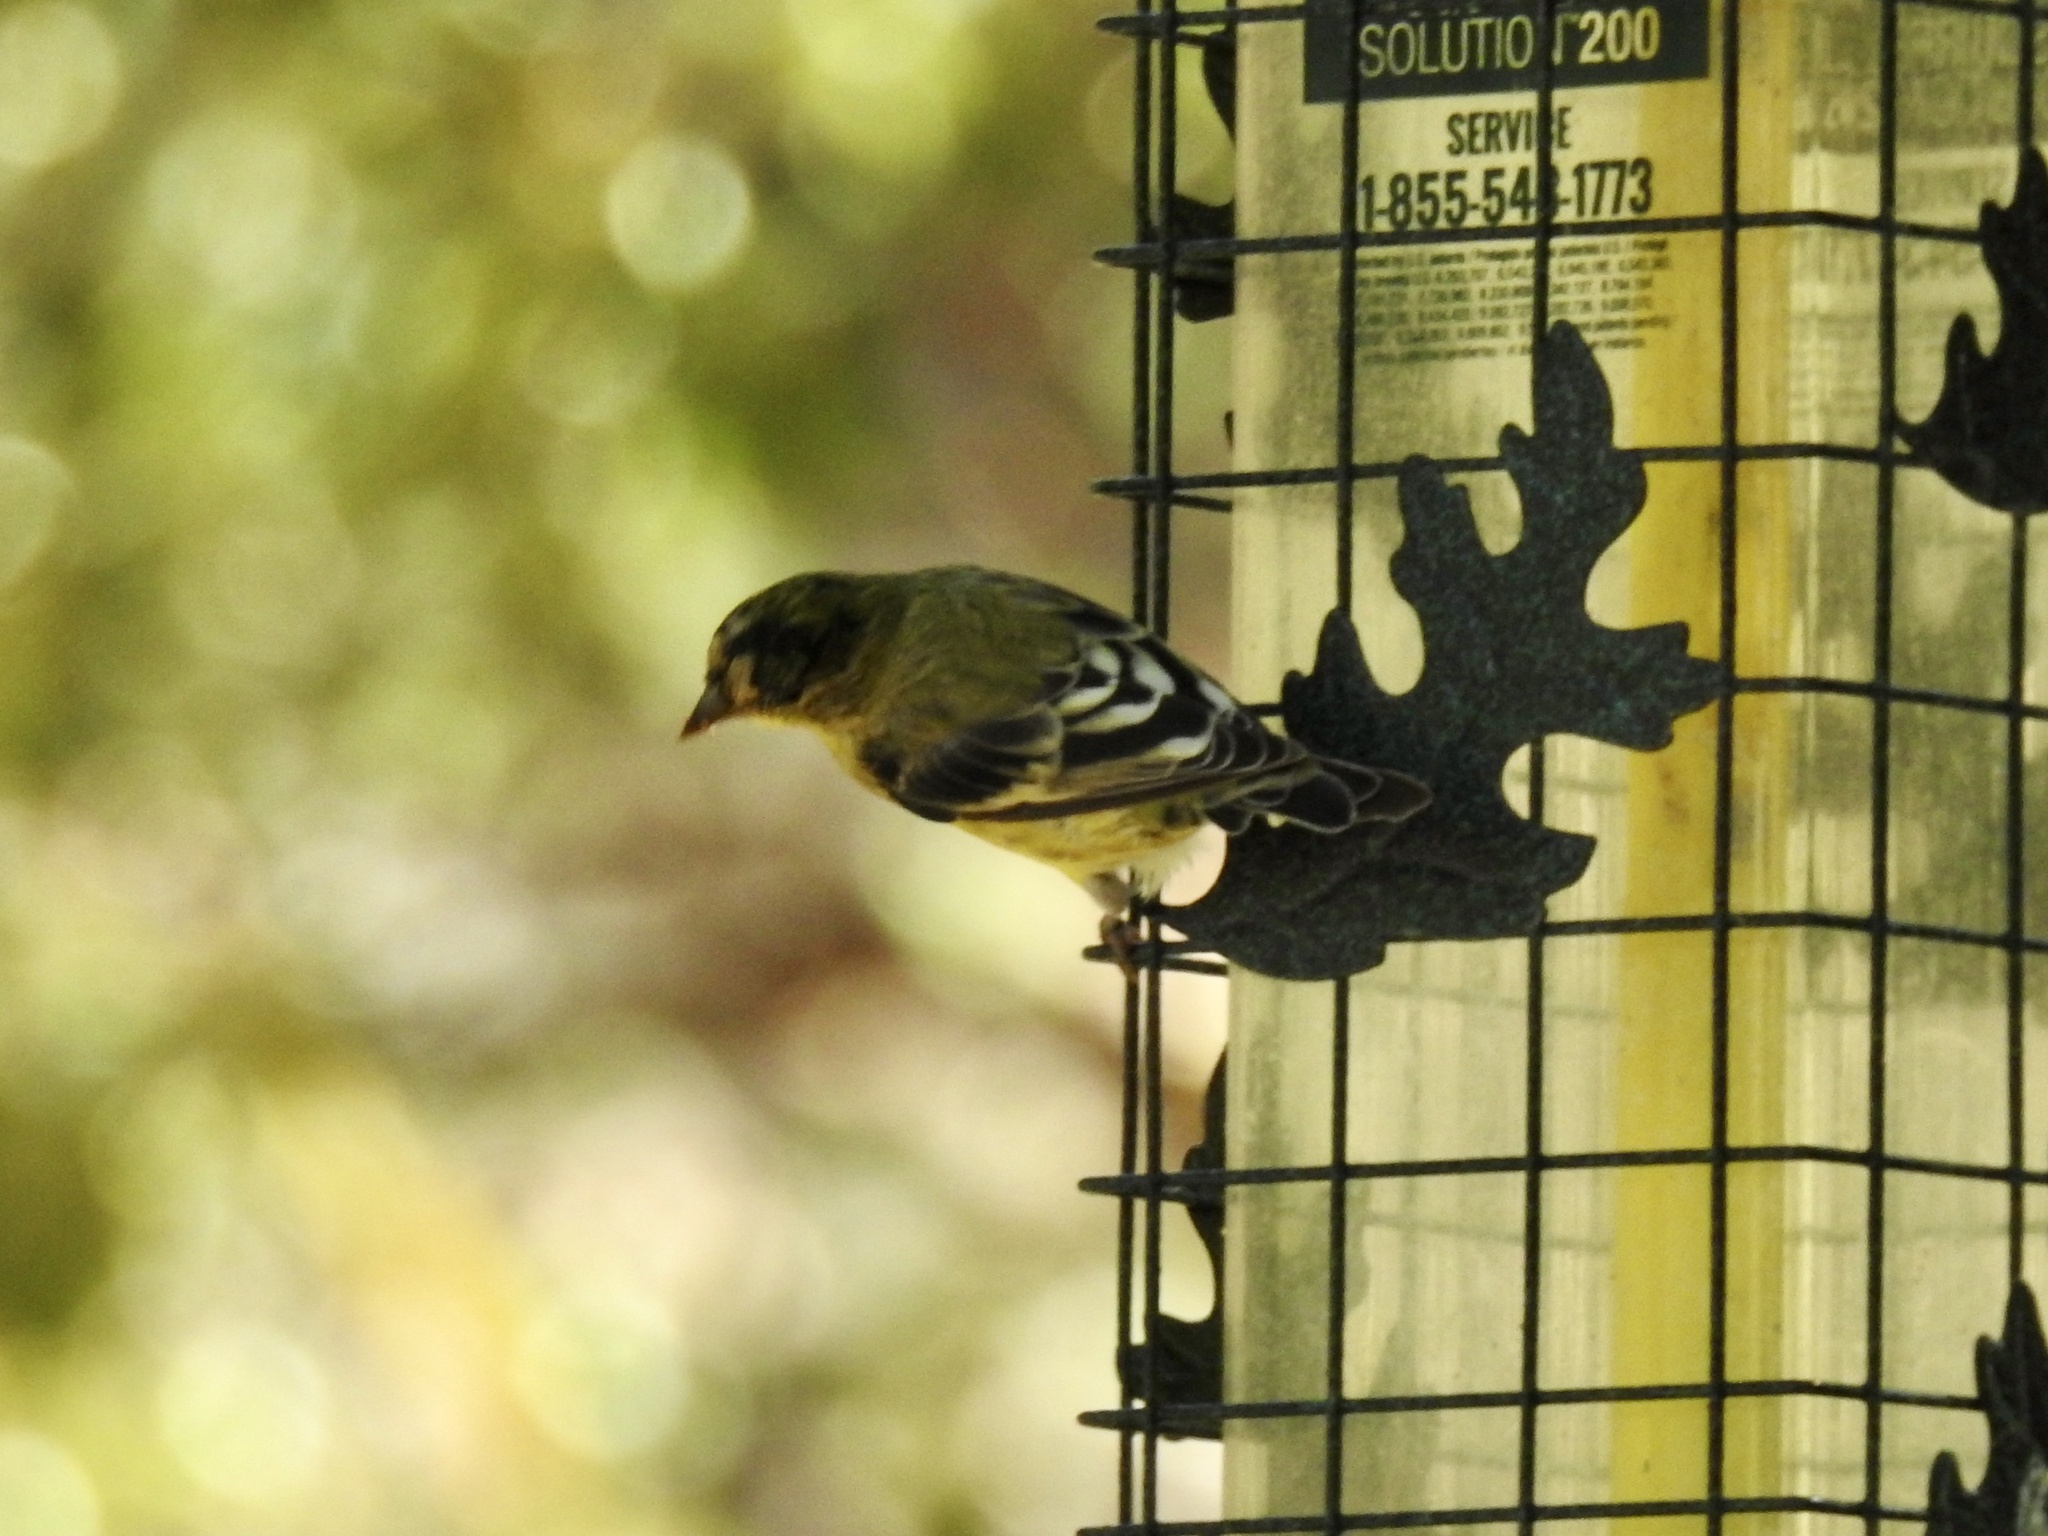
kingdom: Animalia
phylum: Chordata
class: Aves
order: Passeriformes
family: Fringillidae
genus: Spinus
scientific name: Spinus psaltria
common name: Lesser goldfinch
